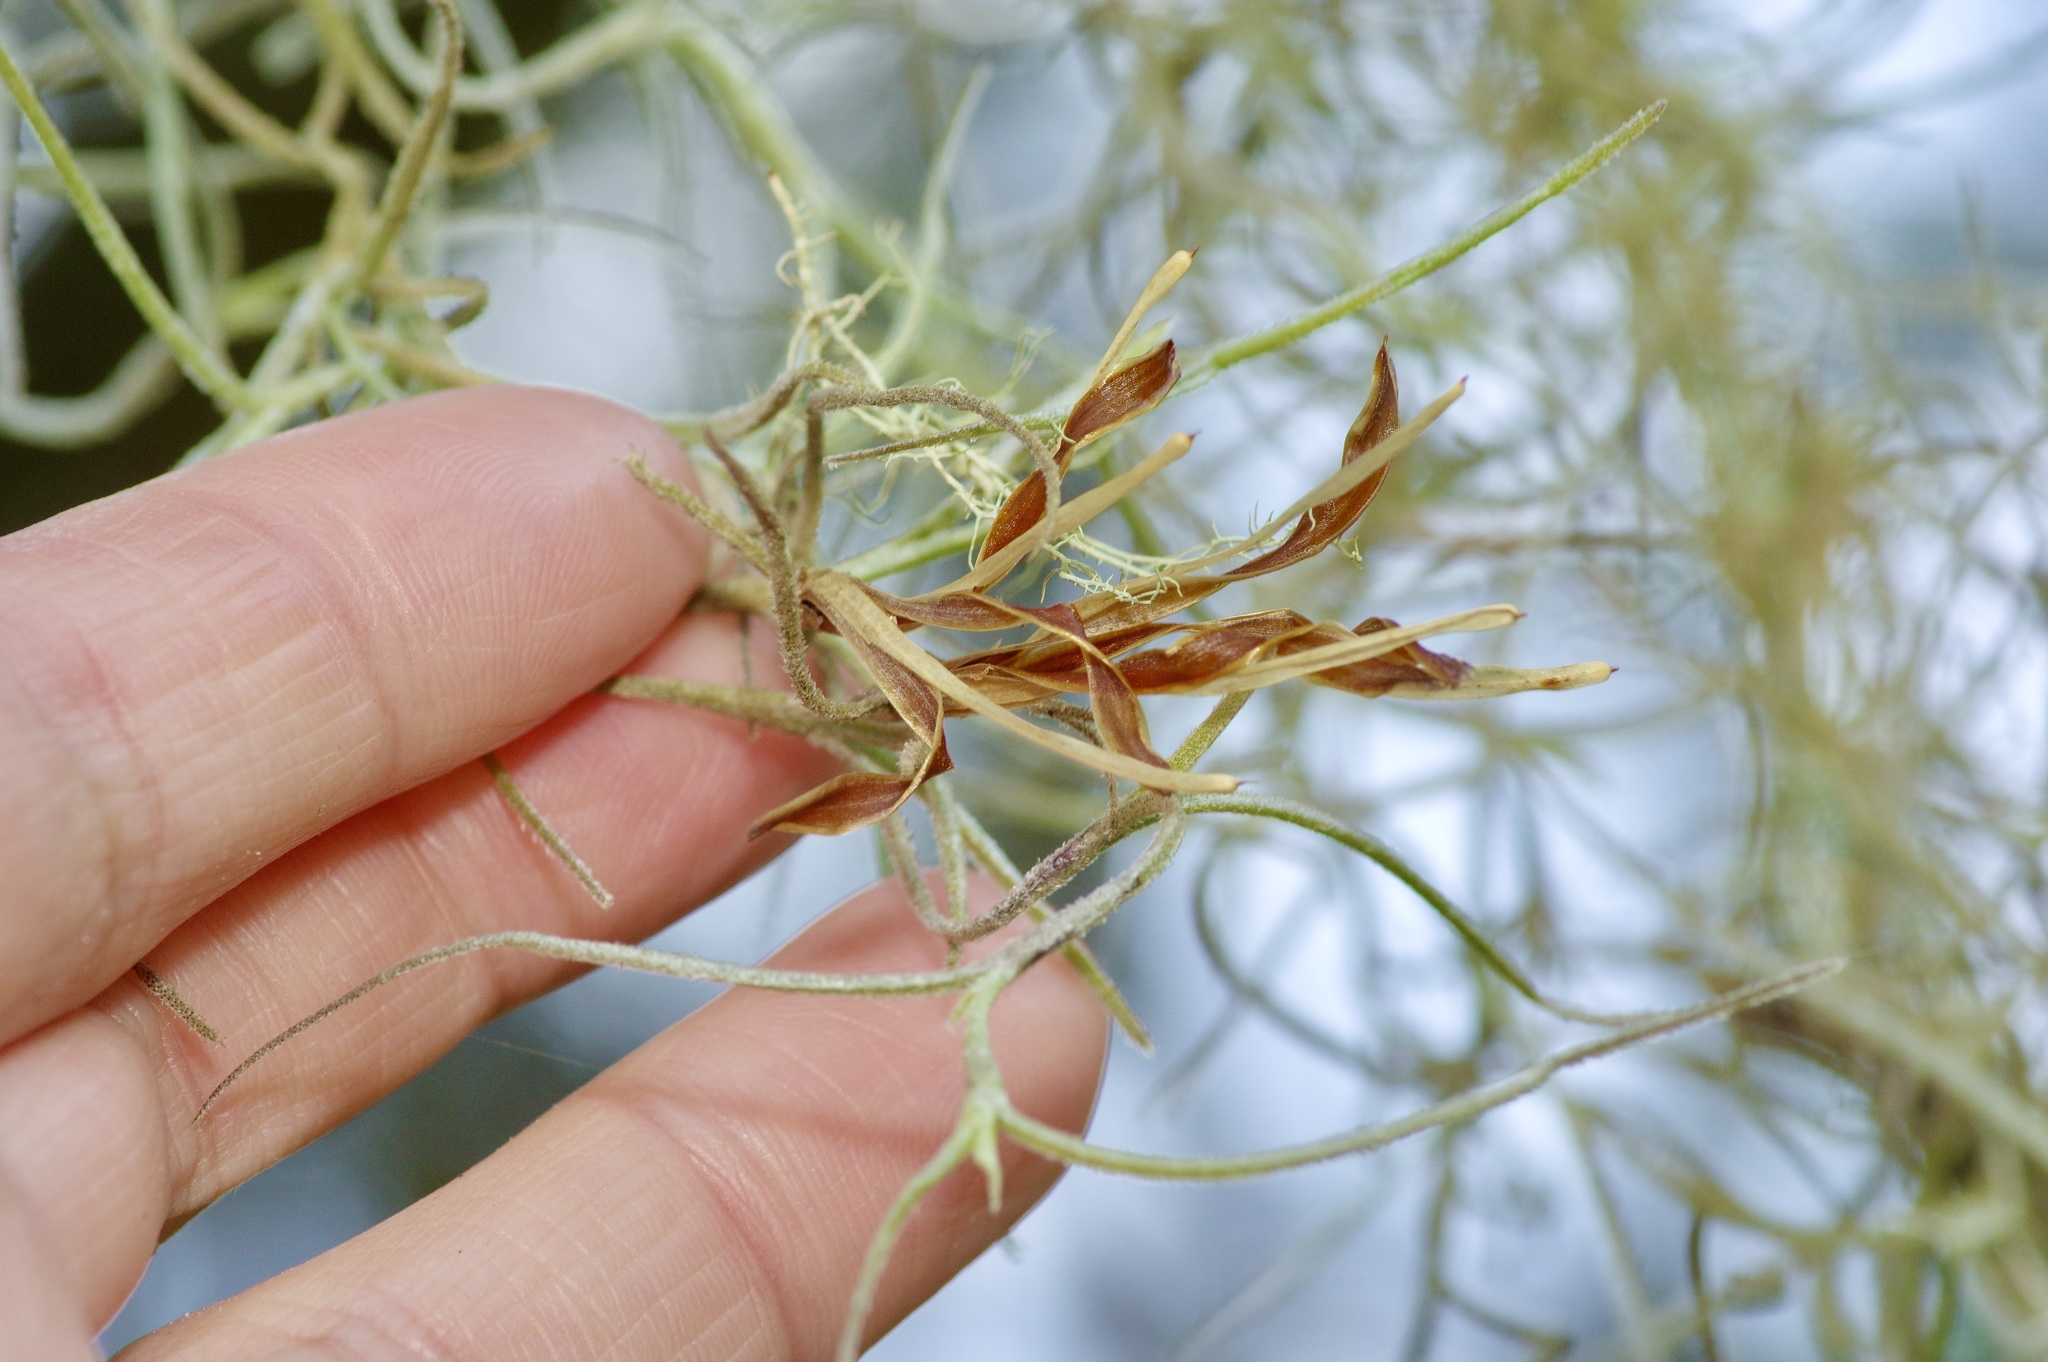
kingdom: Plantae
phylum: Tracheophyta
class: Liliopsida
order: Poales
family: Bromeliaceae
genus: Tillandsia
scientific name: Tillandsia usneoides
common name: Spanish moss
